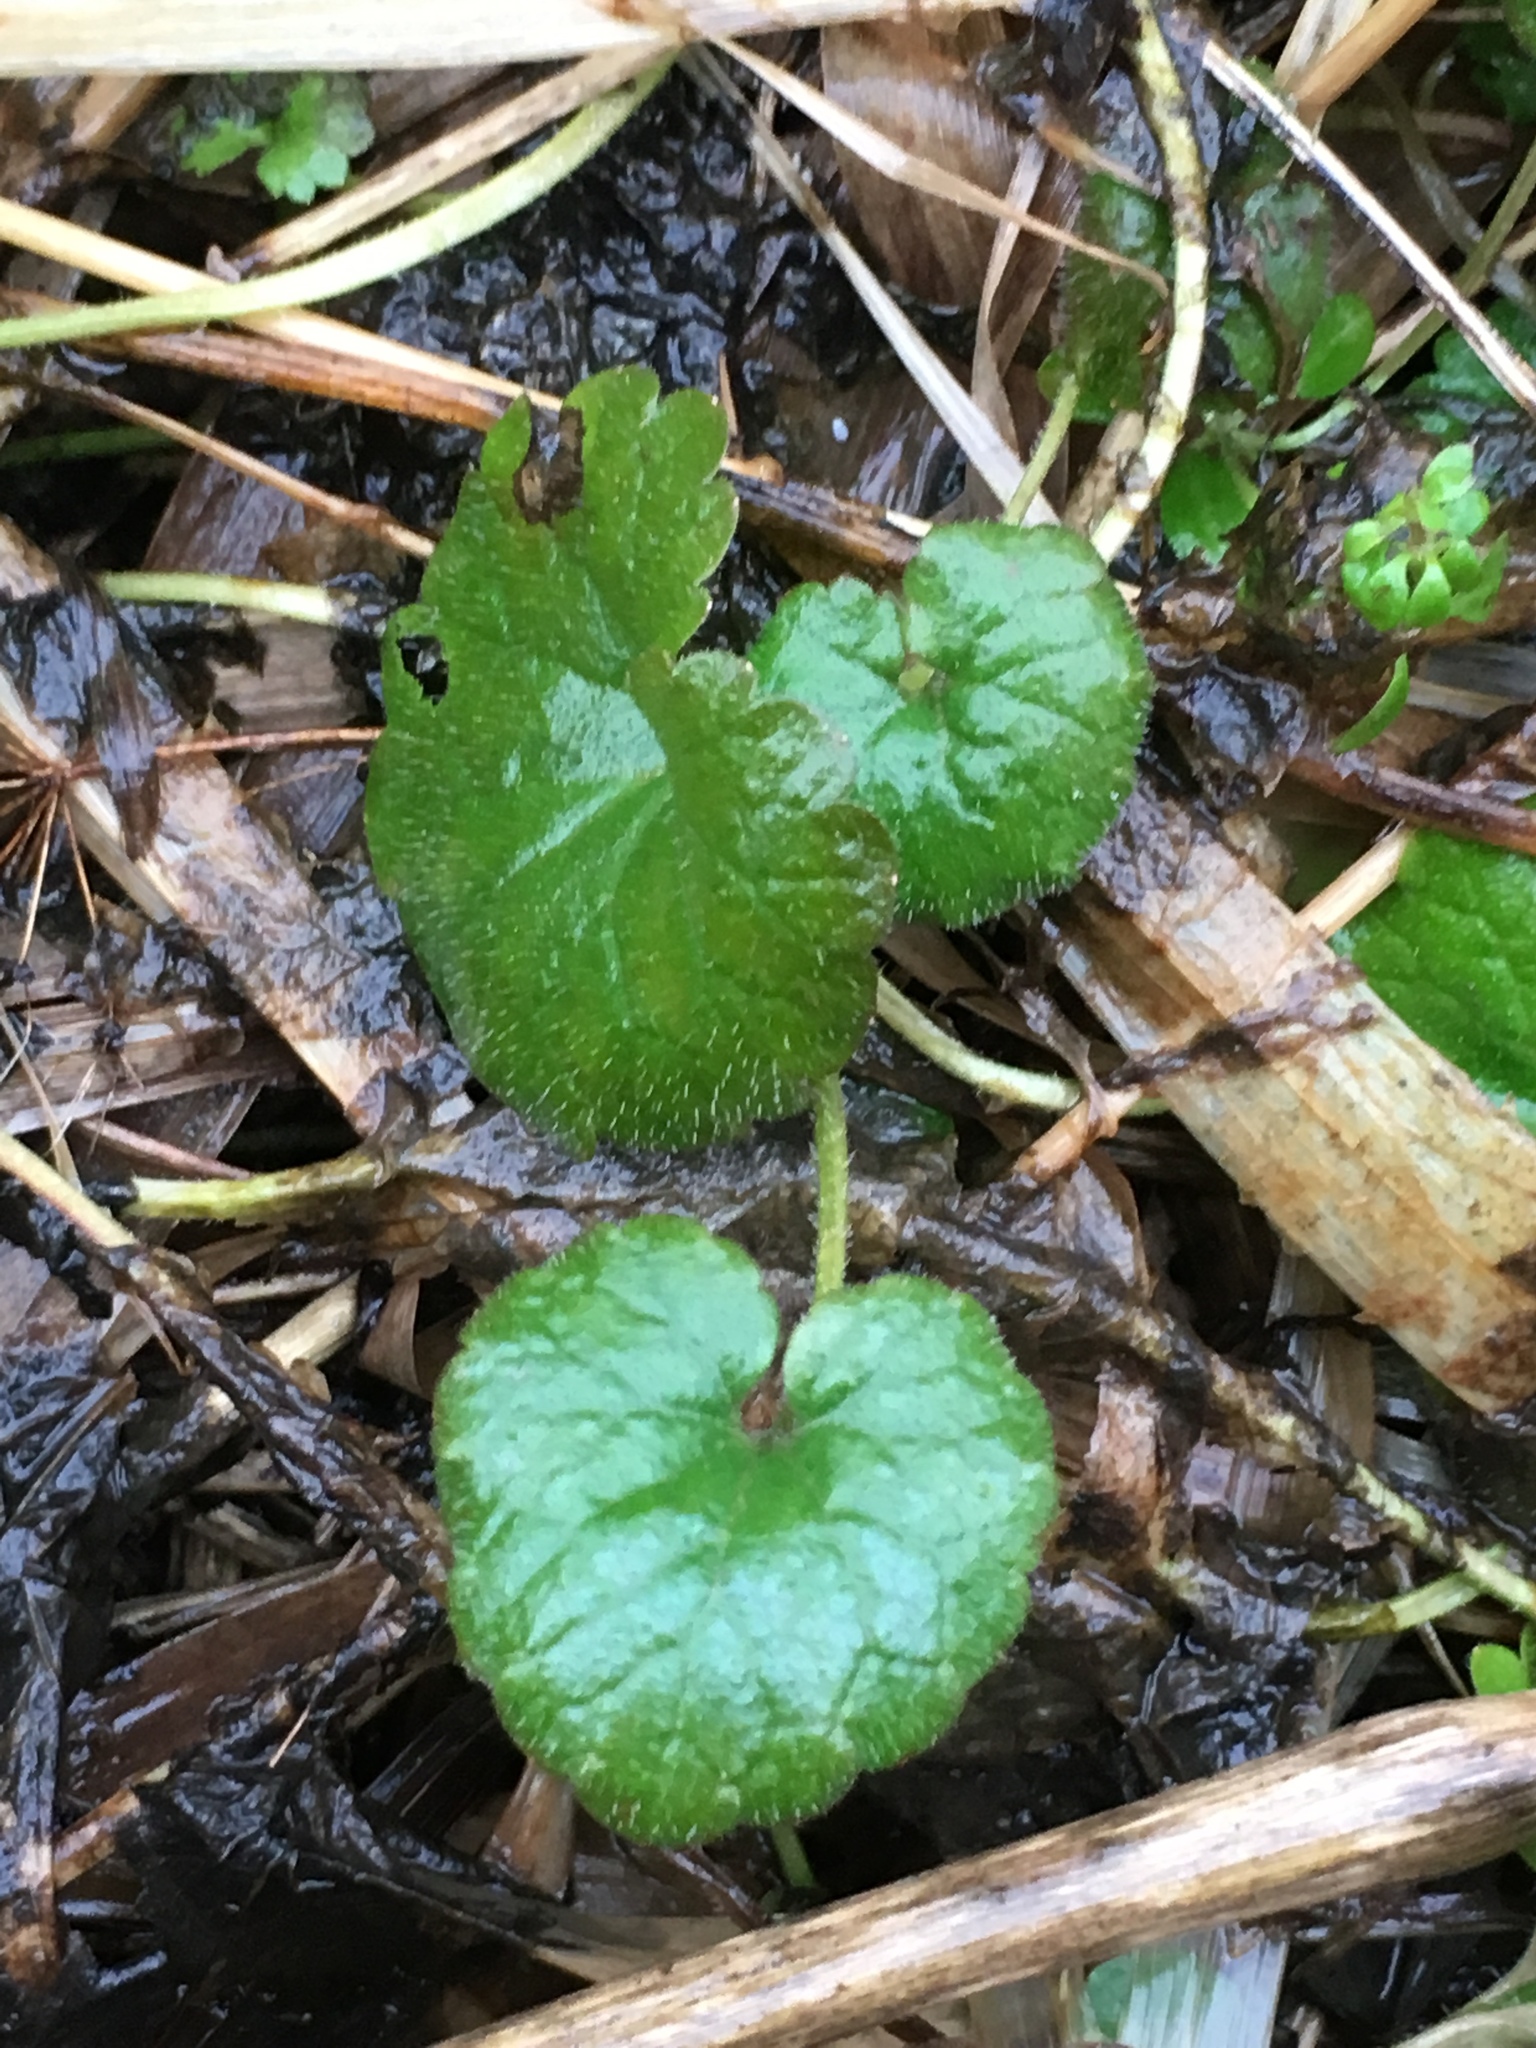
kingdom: Plantae
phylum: Tracheophyta
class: Magnoliopsida
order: Lamiales
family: Lamiaceae
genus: Glechoma
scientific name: Glechoma hederacea
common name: Ground ivy
